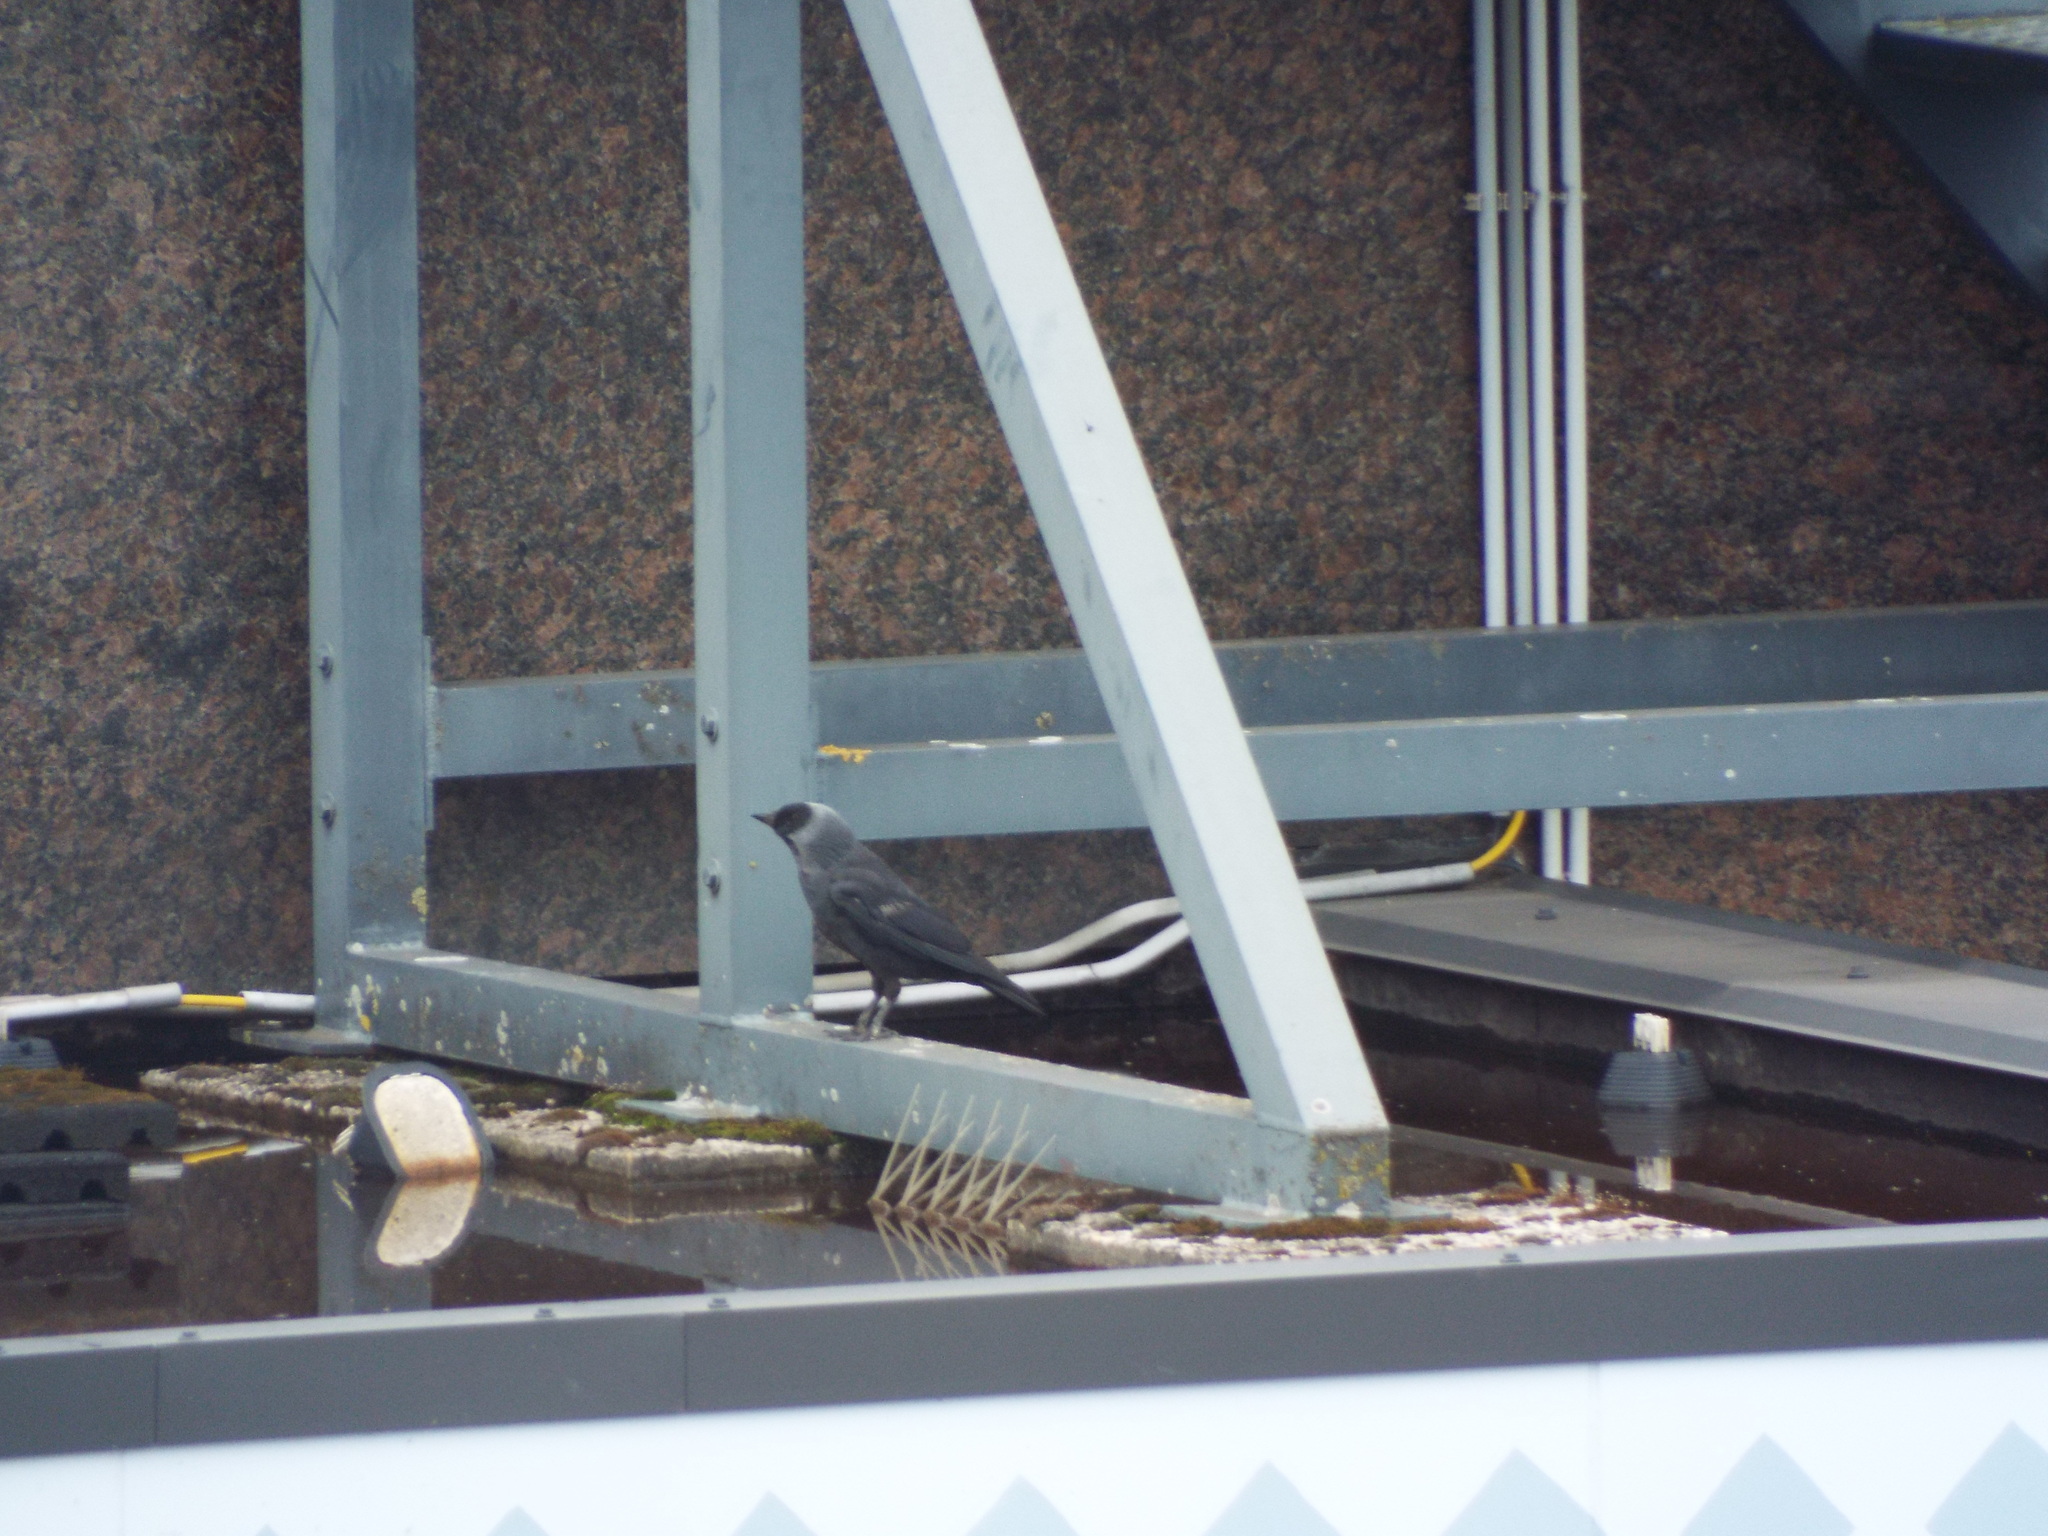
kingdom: Animalia
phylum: Chordata
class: Aves
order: Passeriformes
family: Corvidae
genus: Coloeus
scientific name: Coloeus monedula
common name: Western jackdaw
